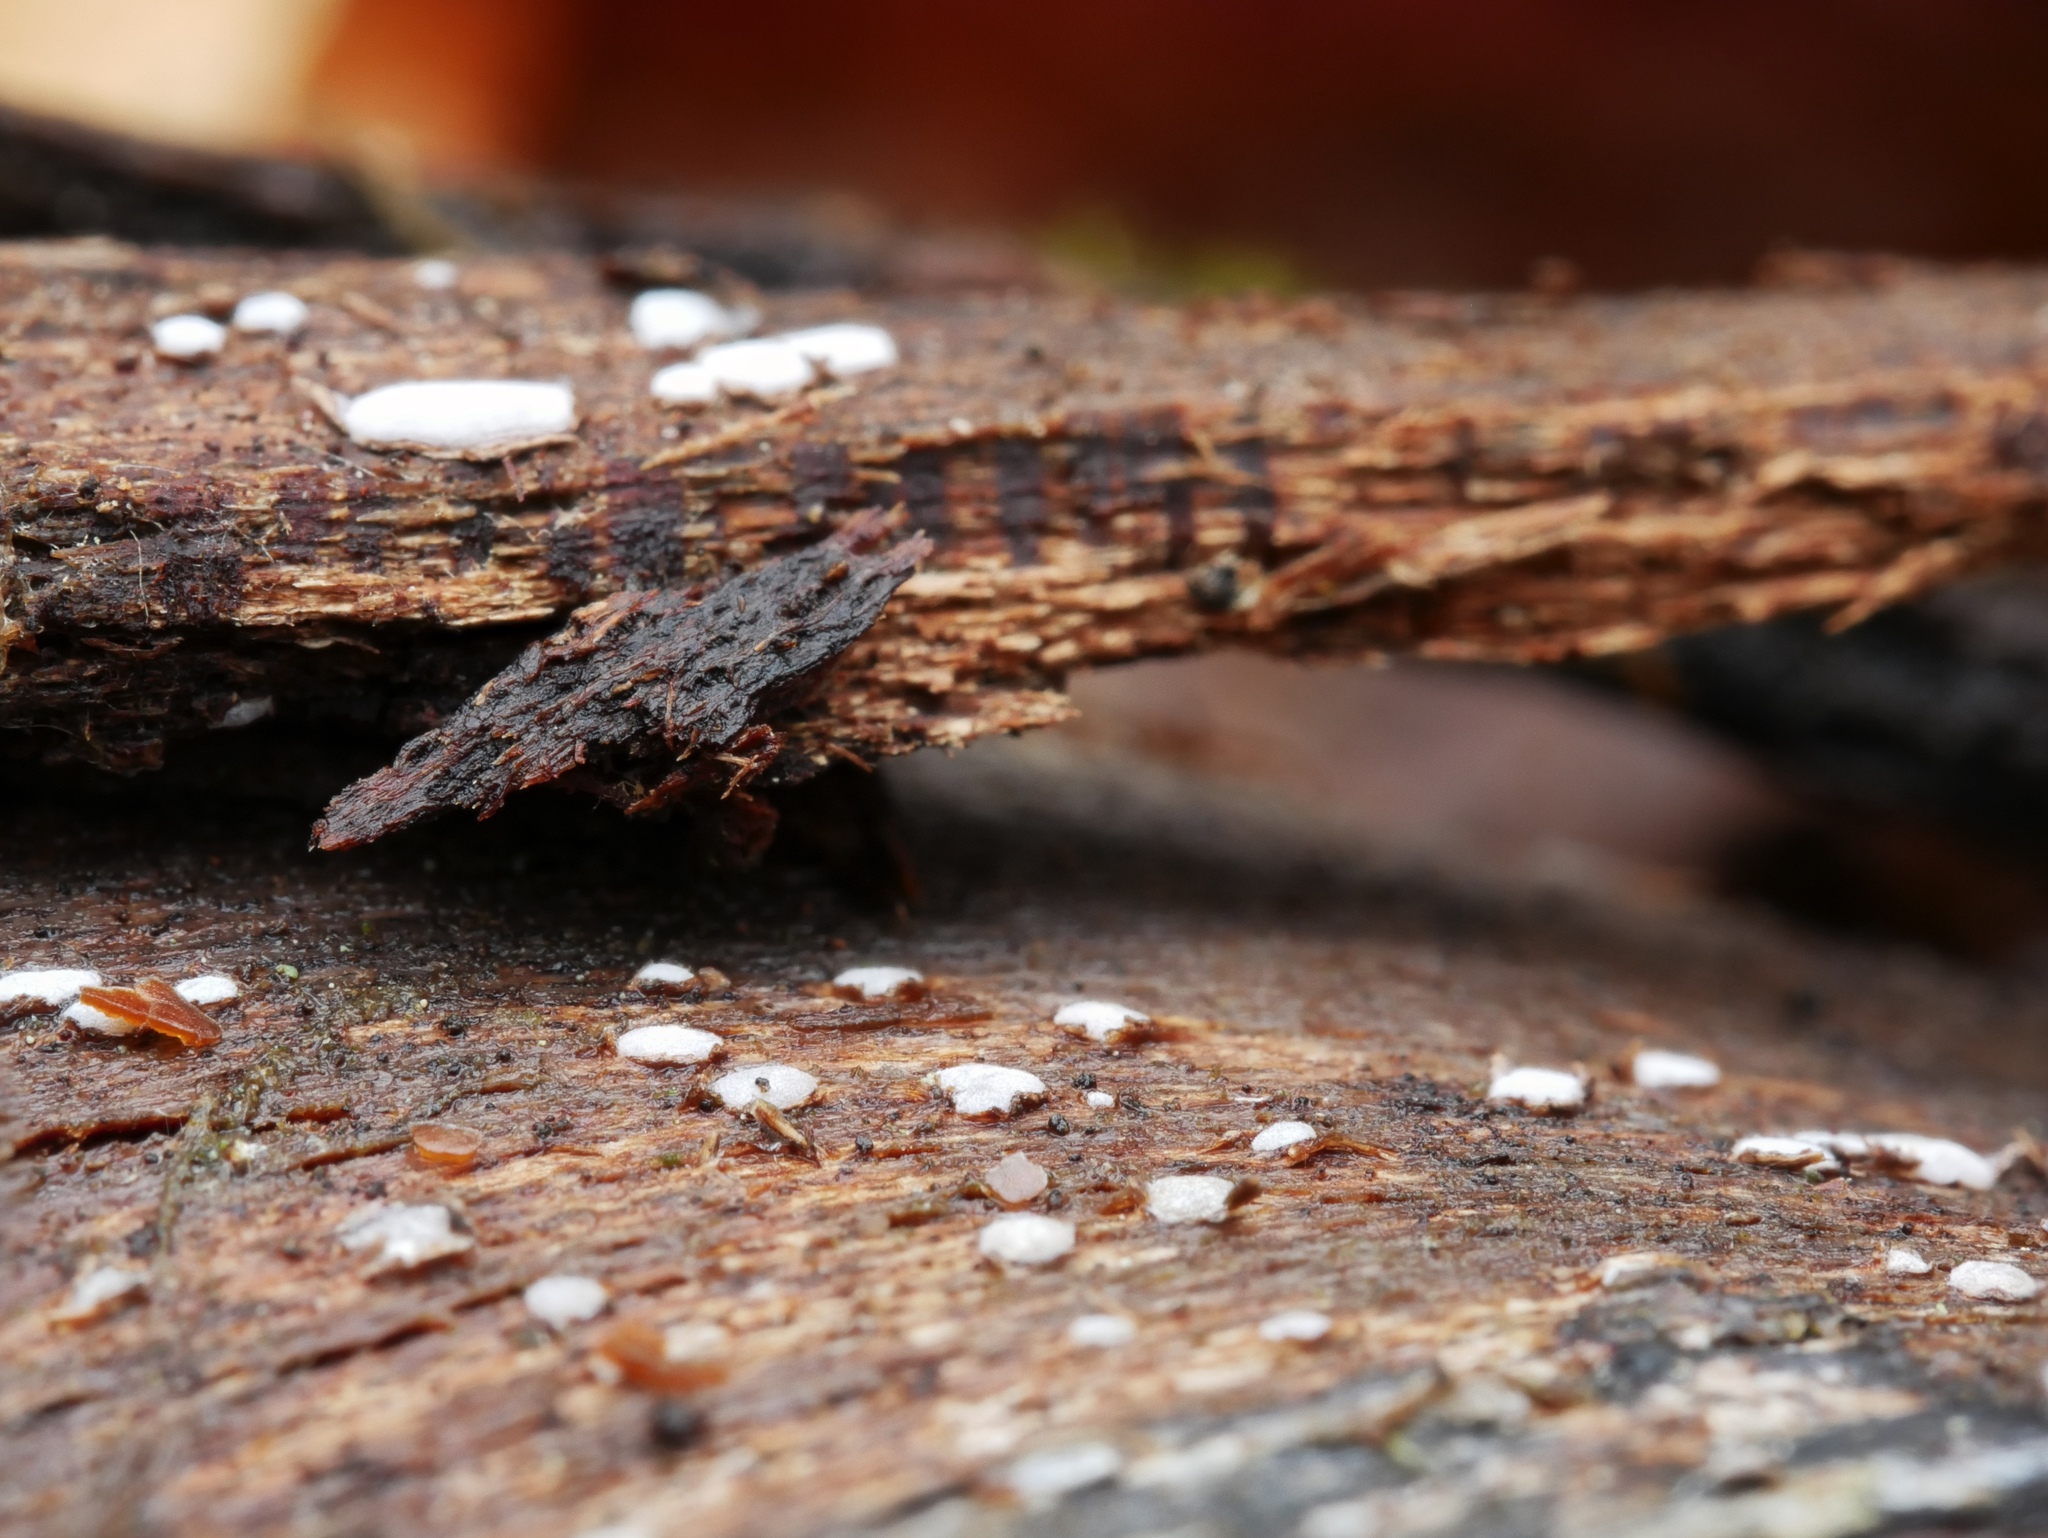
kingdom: Fungi
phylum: Ascomycota
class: Leotiomycetes
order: Chaetomellales
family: Marthamycetaceae
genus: Propolis
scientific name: Propolis farinosa
